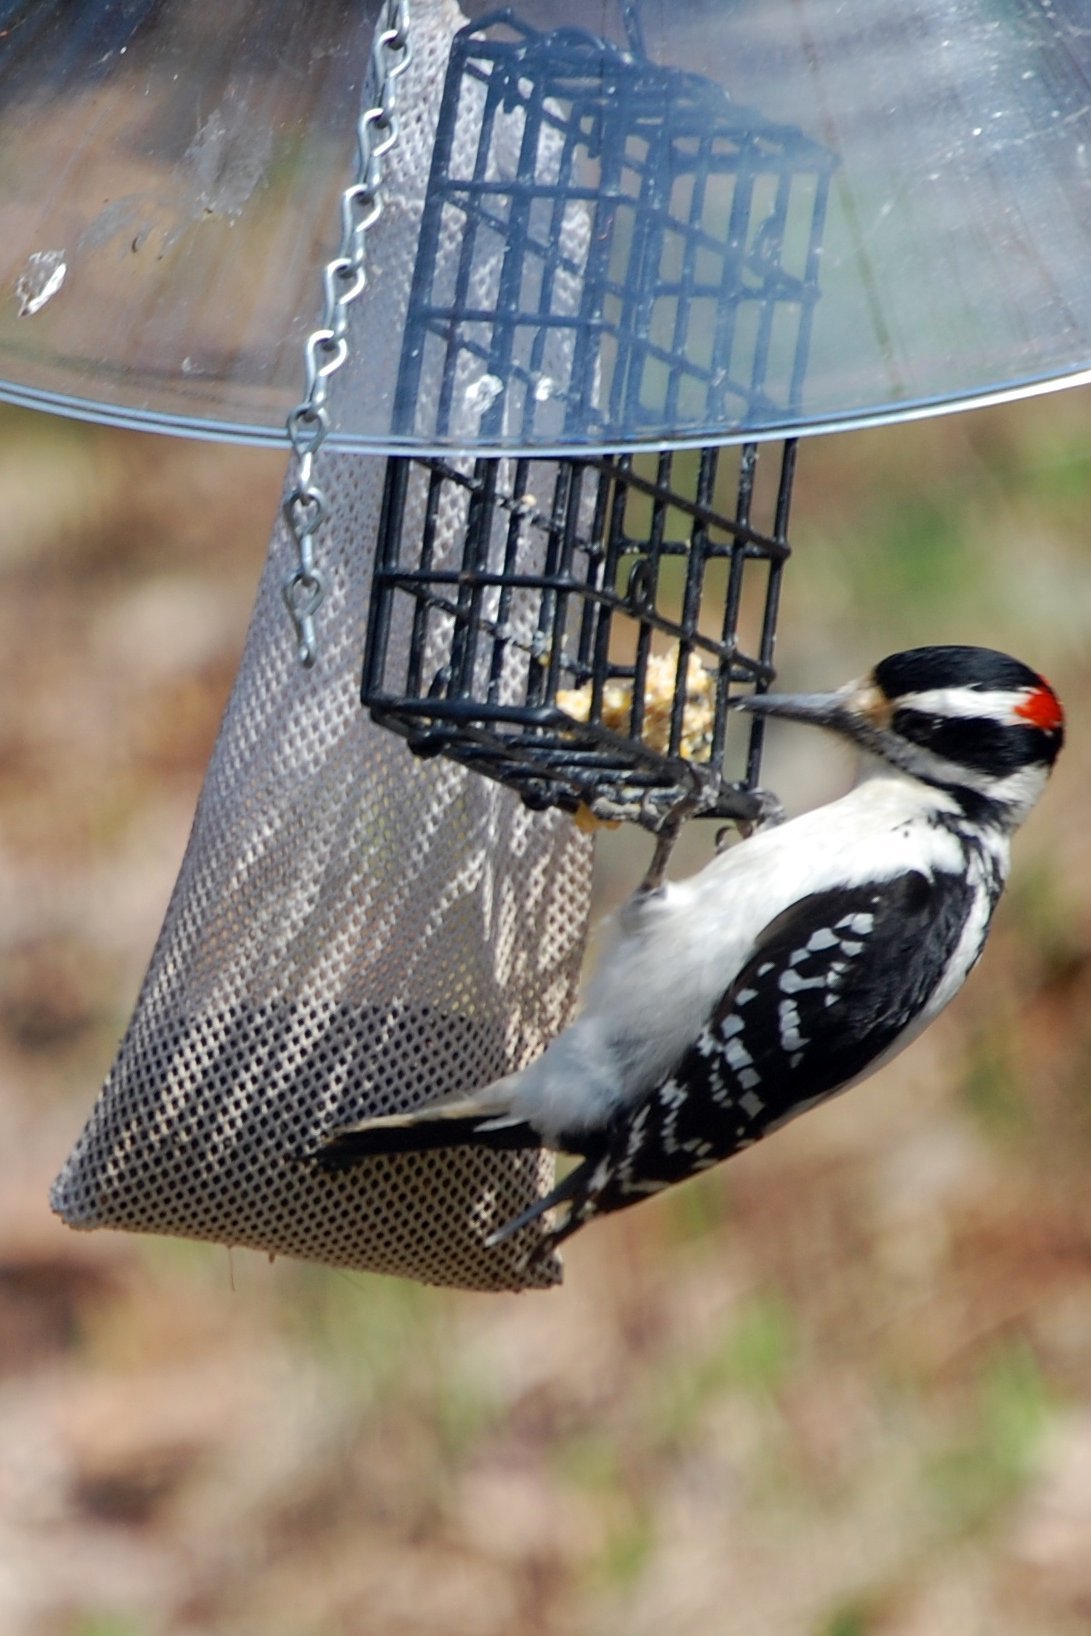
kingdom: Animalia
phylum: Chordata
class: Aves
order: Piciformes
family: Picidae
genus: Leuconotopicus
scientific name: Leuconotopicus villosus
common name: Hairy woodpecker
